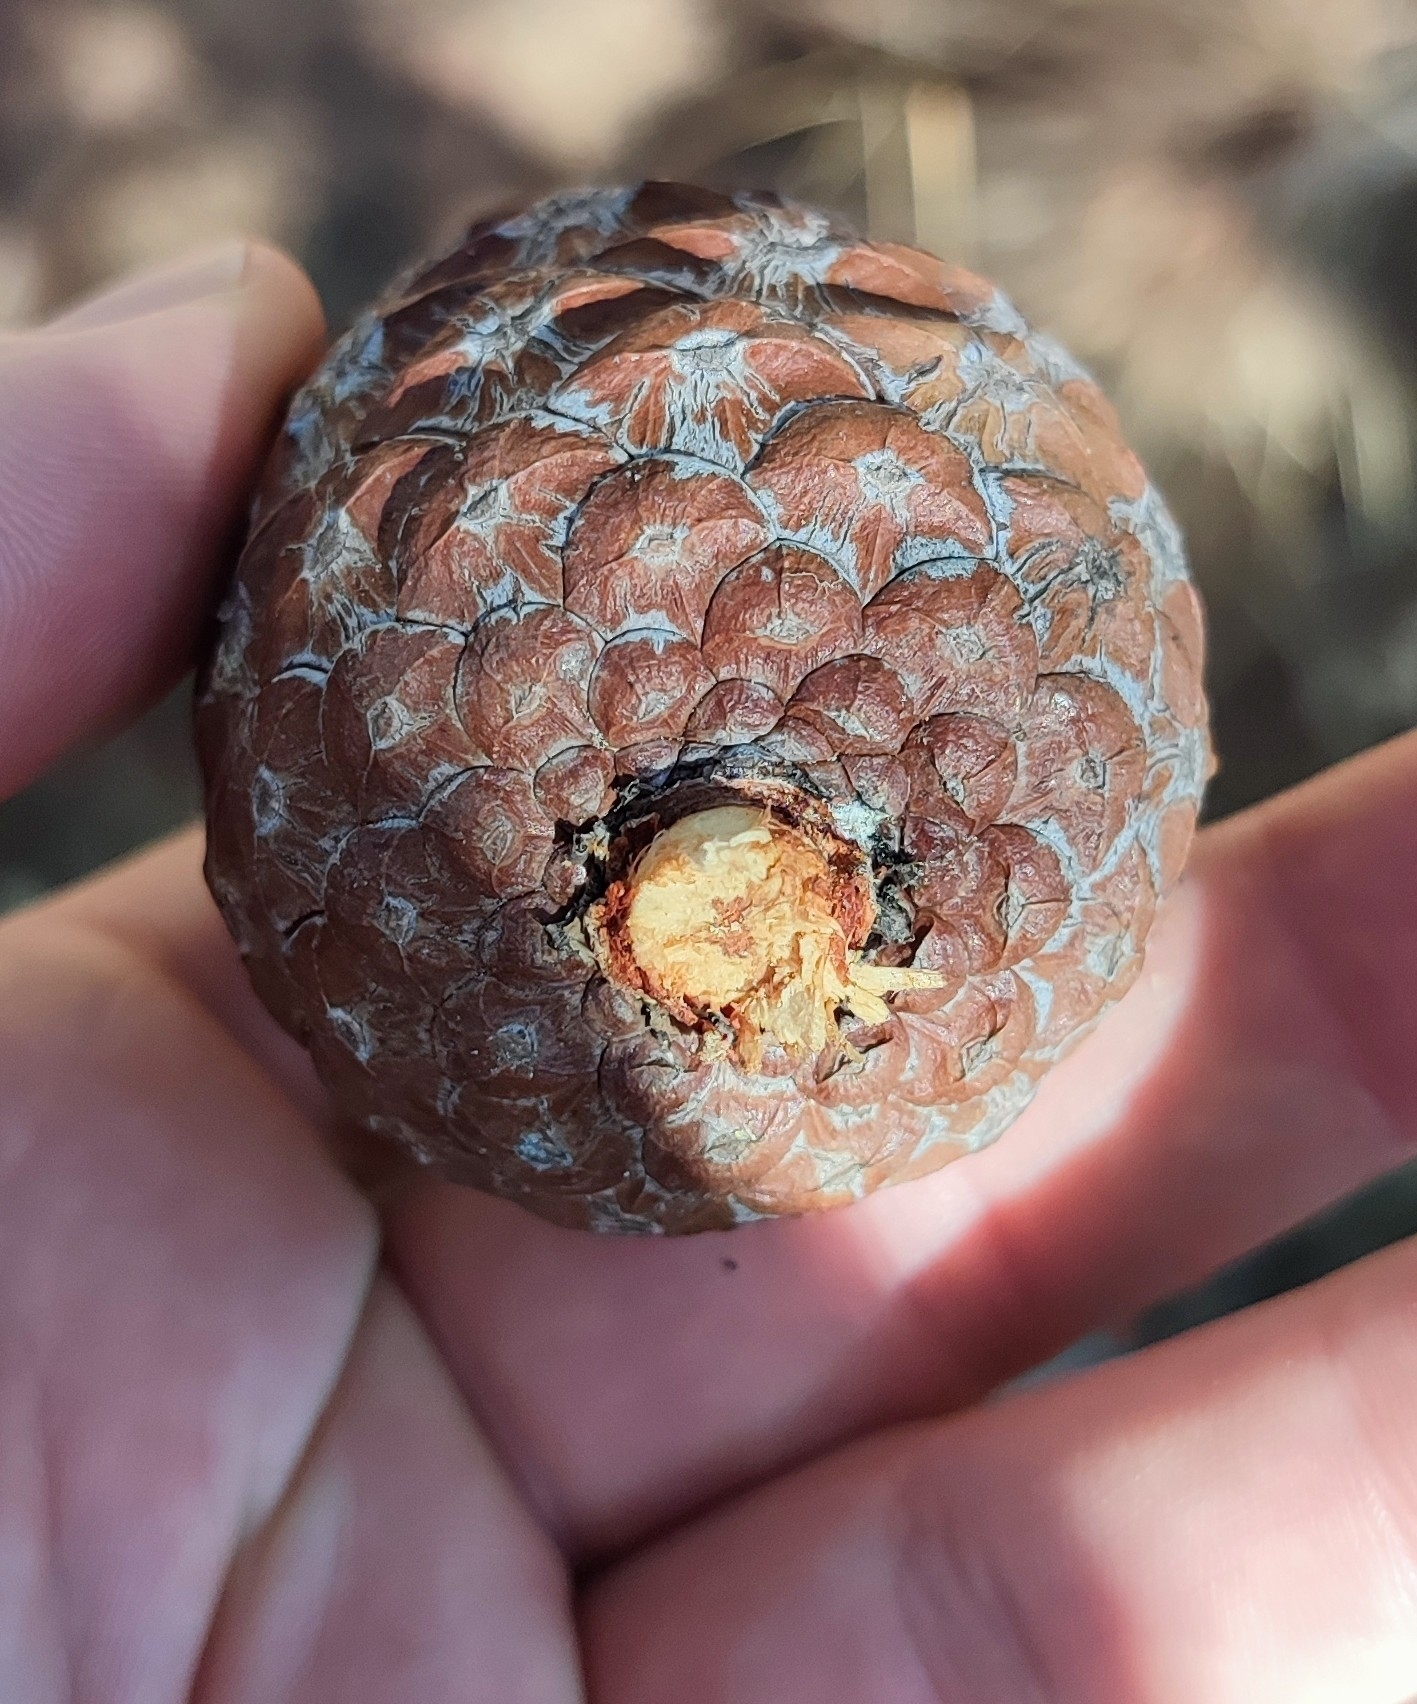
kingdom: Plantae
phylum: Tracheophyta
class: Pinopsida
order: Pinales
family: Pinaceae
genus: Pinus
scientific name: Pinus brutia
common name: Turkish pine
